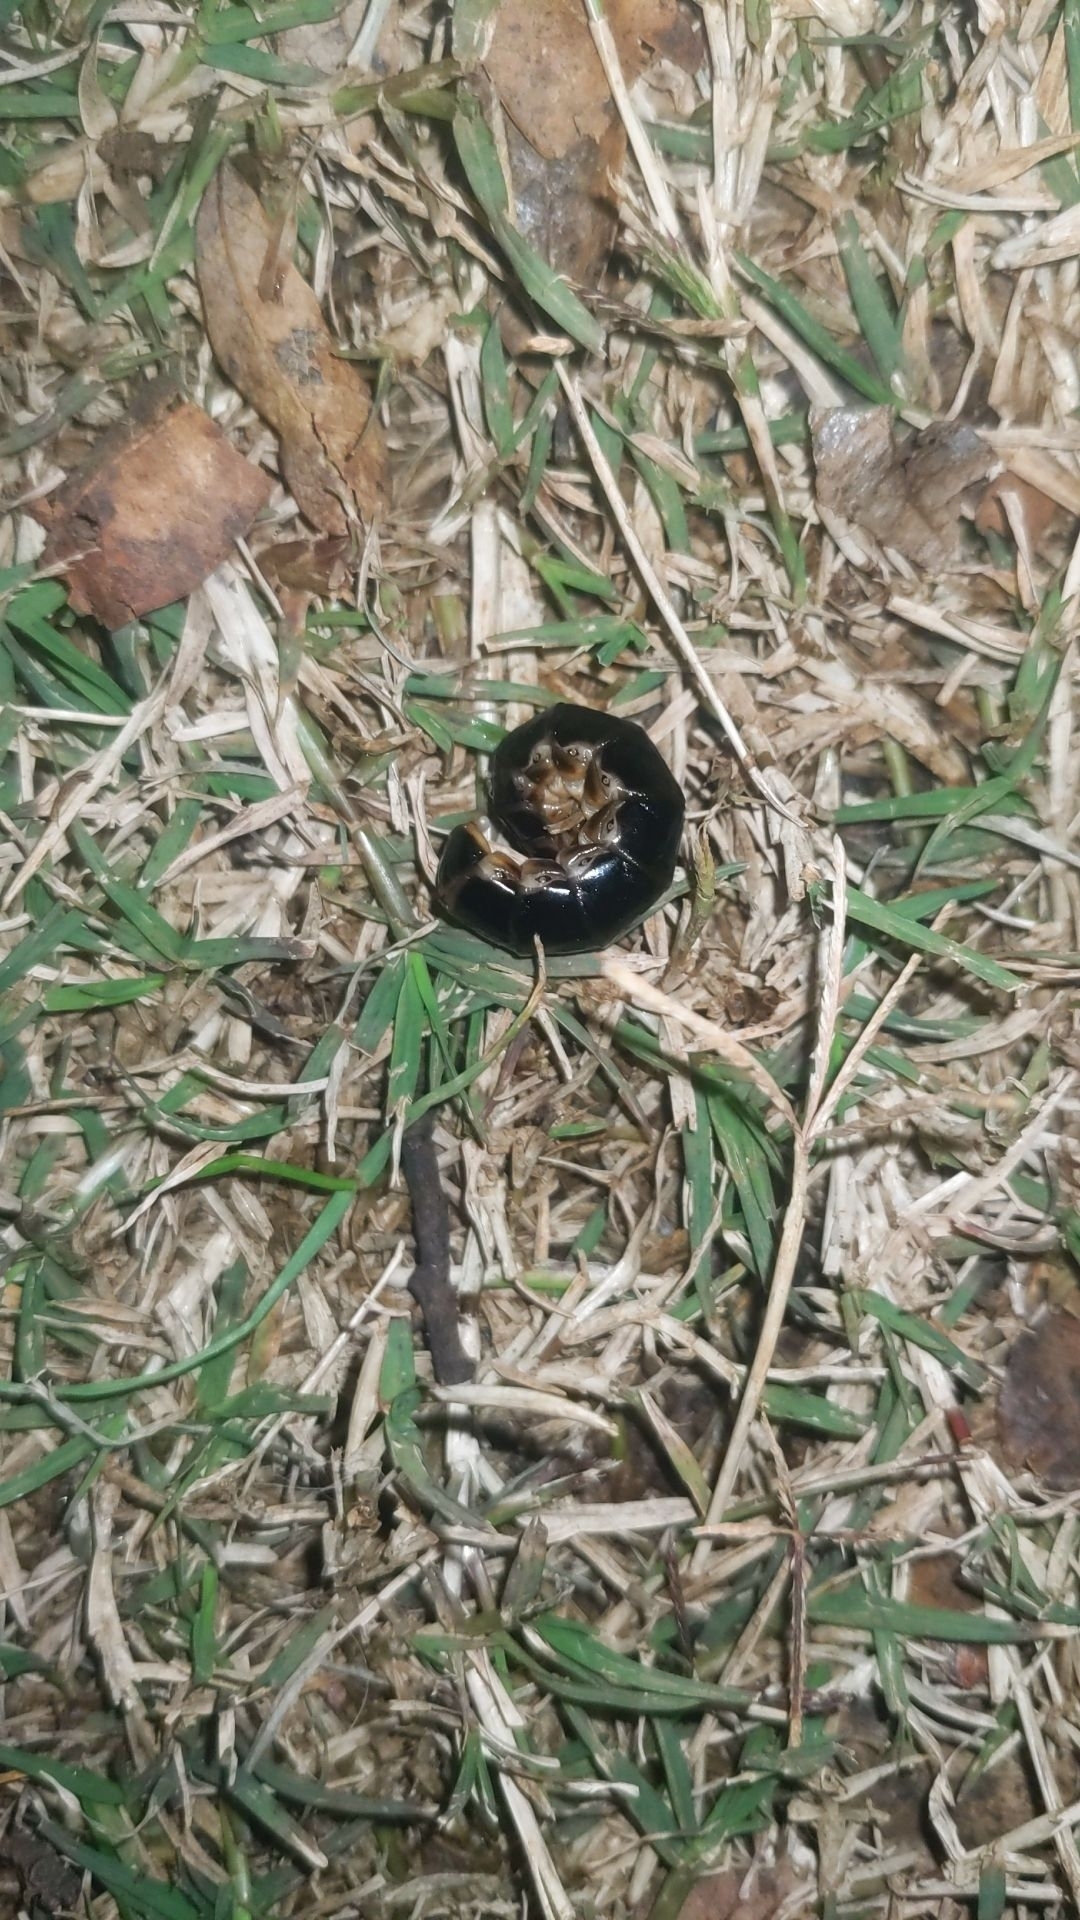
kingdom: Animalia
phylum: Arthropoda
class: Insecta
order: Coleoptera
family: Phengodidae
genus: Zarhipis
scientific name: Zarhipis integripennis
